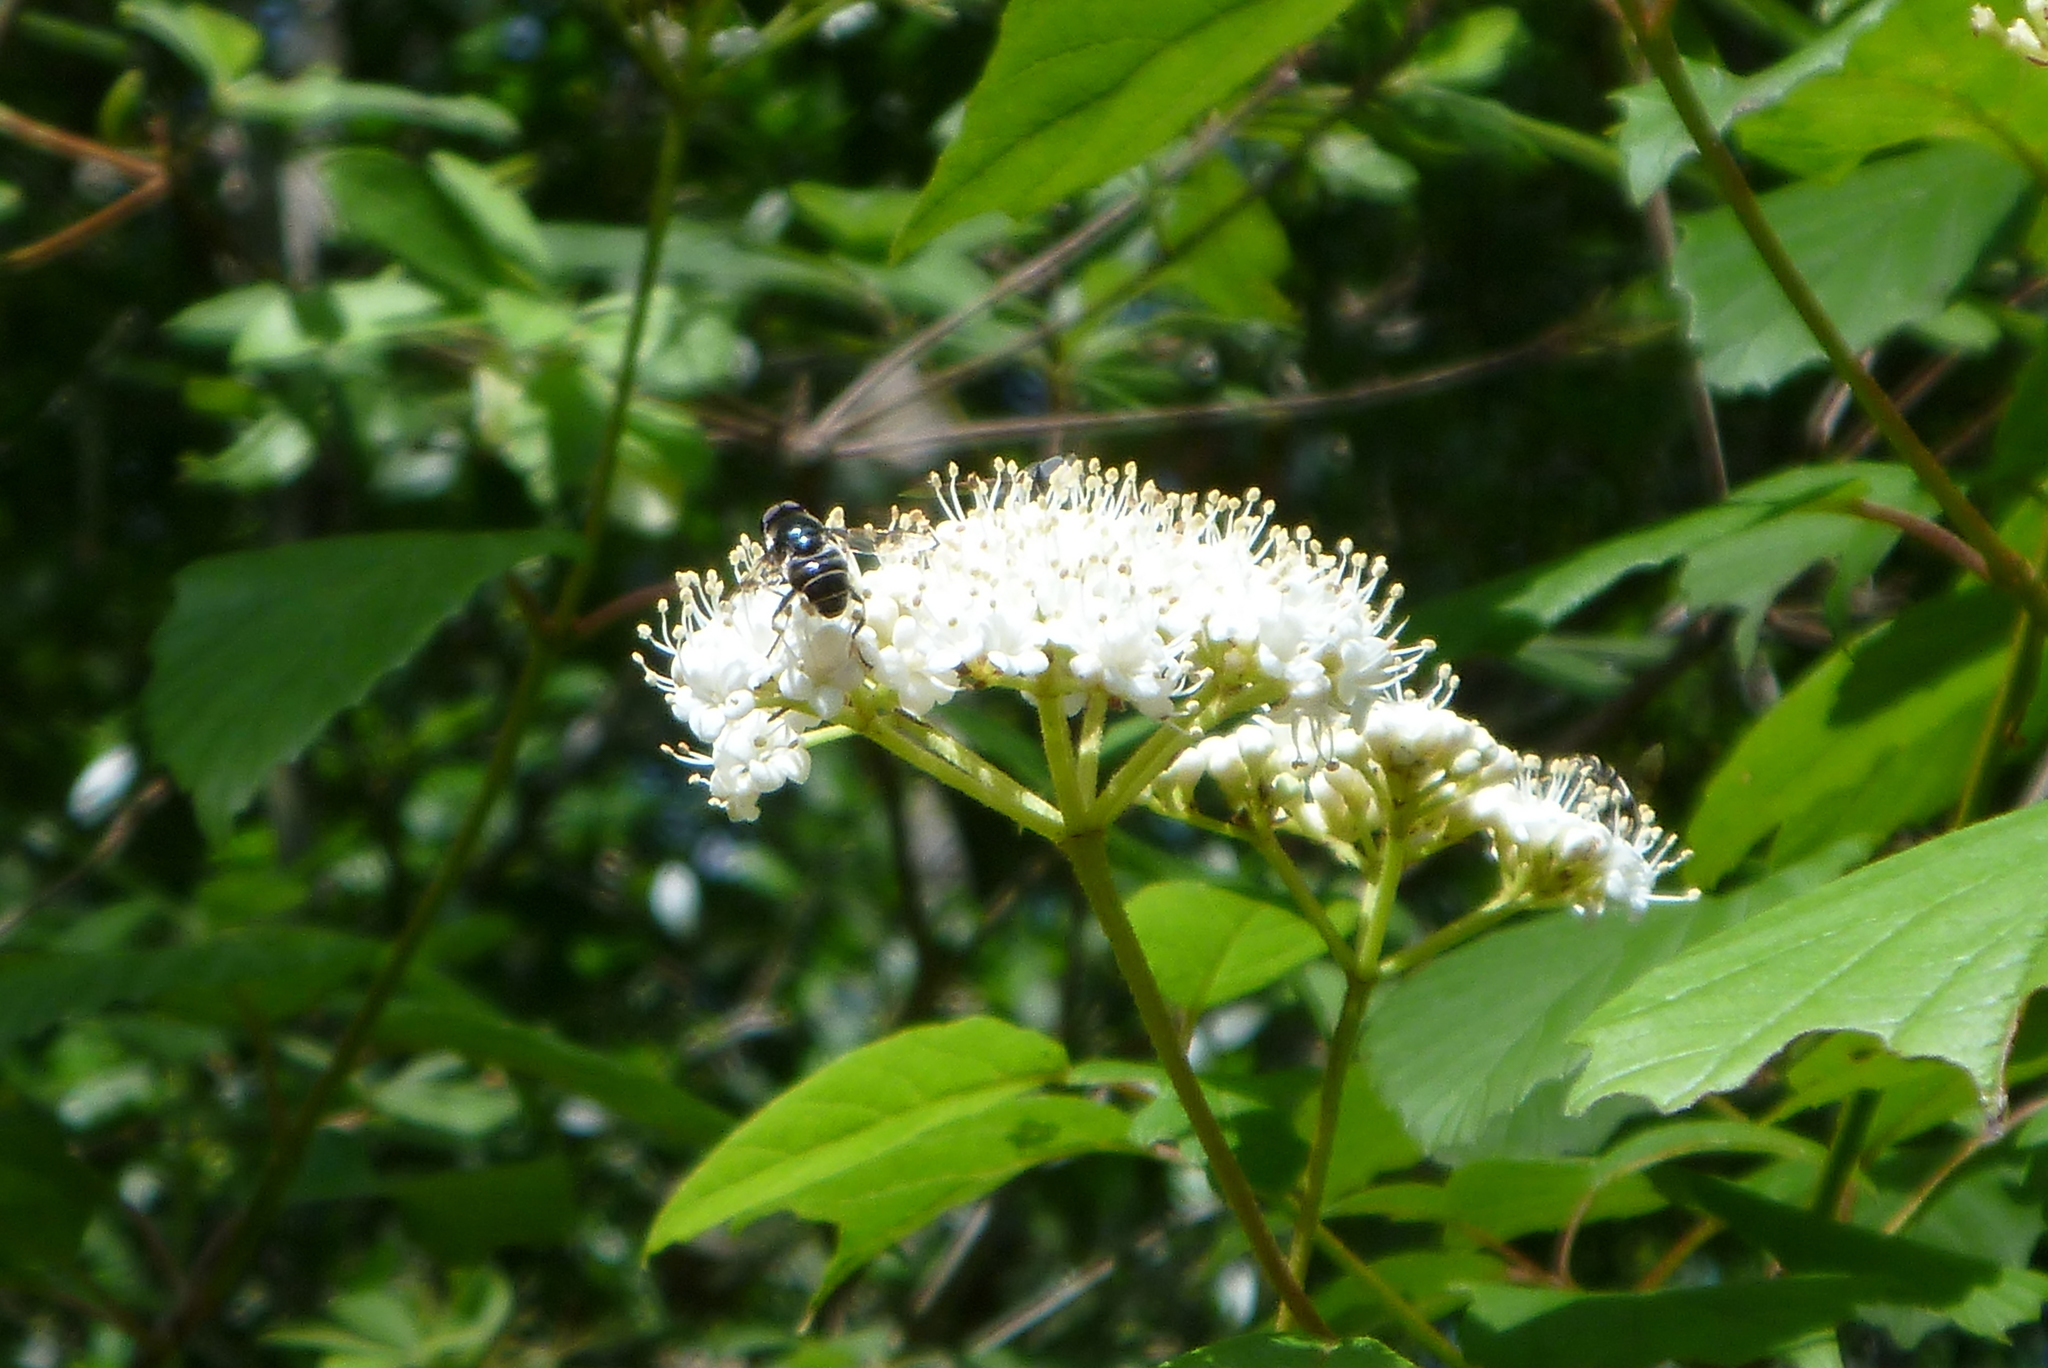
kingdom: Animalia
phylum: Arthropoda
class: Insecta
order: Diptera
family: Syrphidae
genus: Eristalis
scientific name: Eristalis dimidiata
